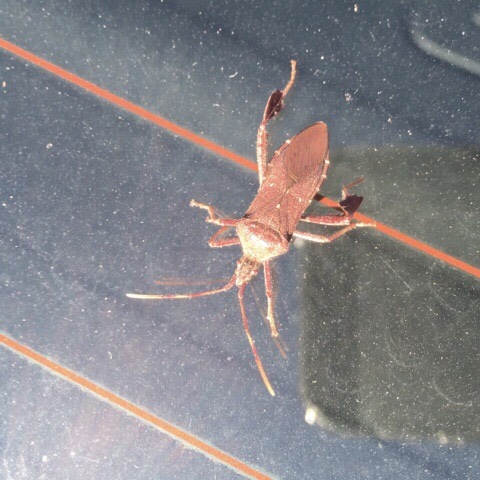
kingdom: Animalia
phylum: Arthropoda
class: Insecta
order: Hemiptera
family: Coreidae
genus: Leptoglossus
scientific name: Leptoglossus oppositus
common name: Northern leaf-footed bug
